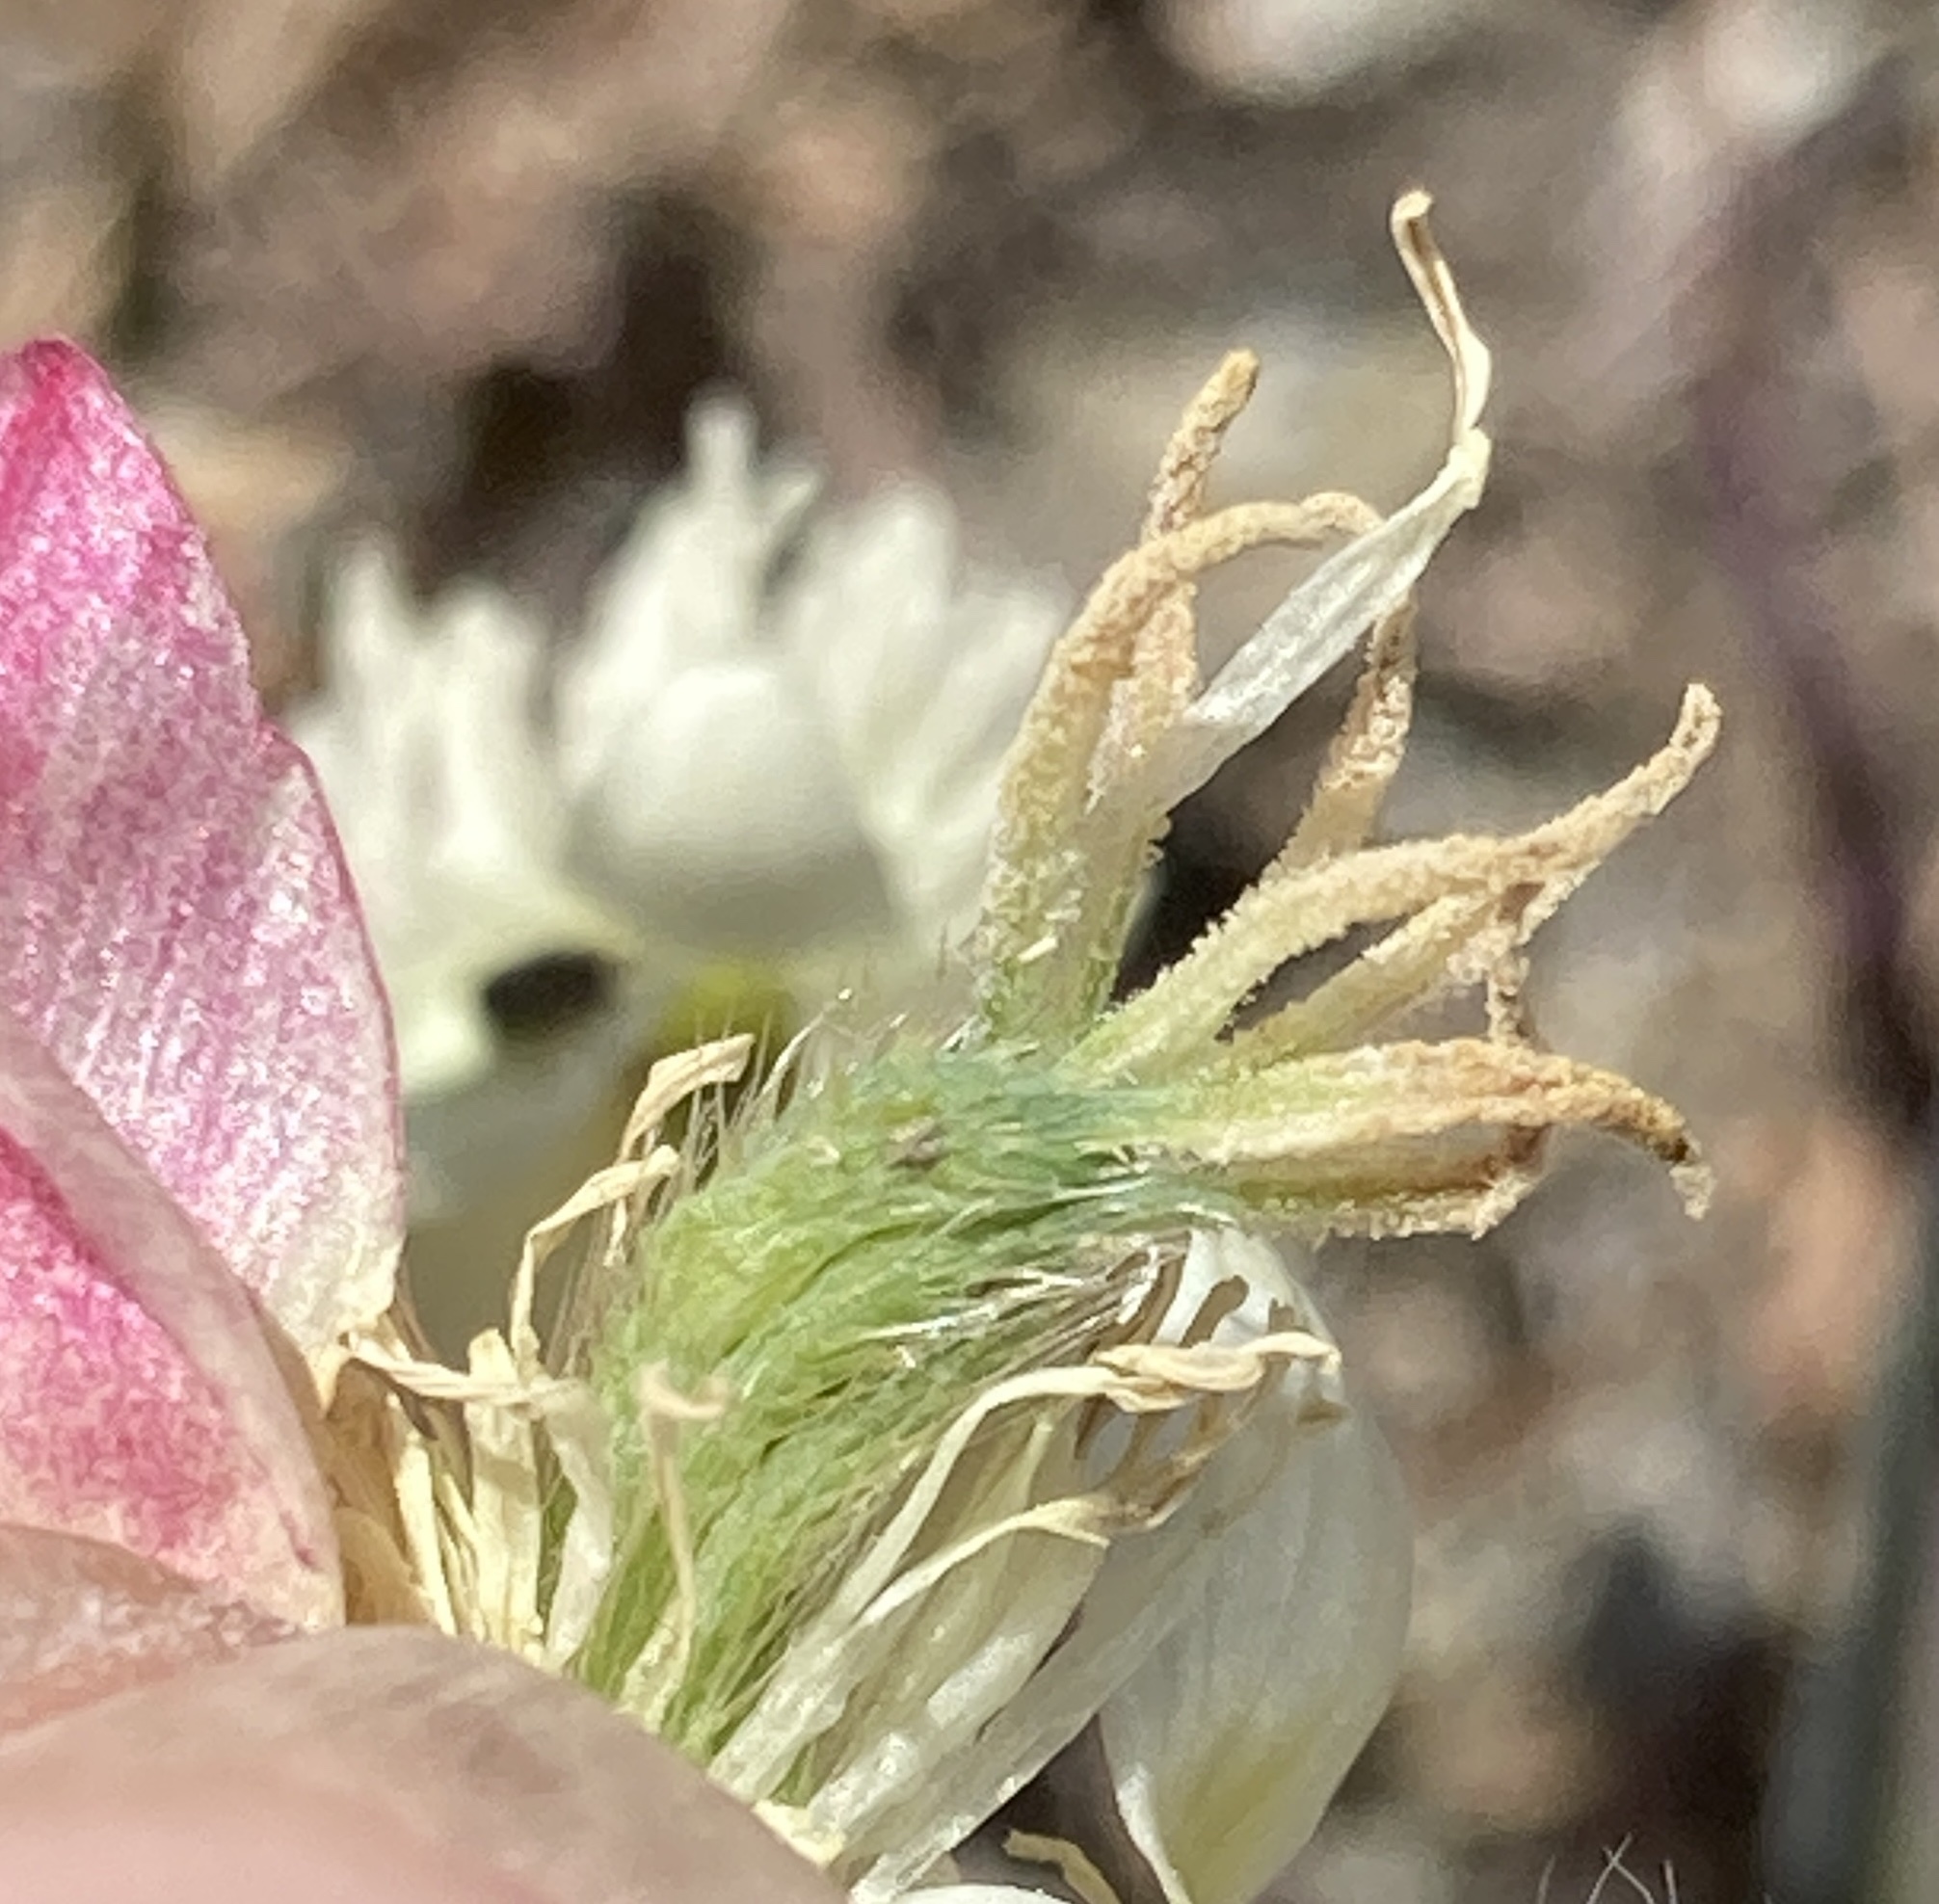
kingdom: Plantae
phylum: Tracheophyta
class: Magnoliopsida
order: Ranunculales
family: Papaveraceae
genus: Platystemon
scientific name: Platystemon californicus
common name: Cream-cups
